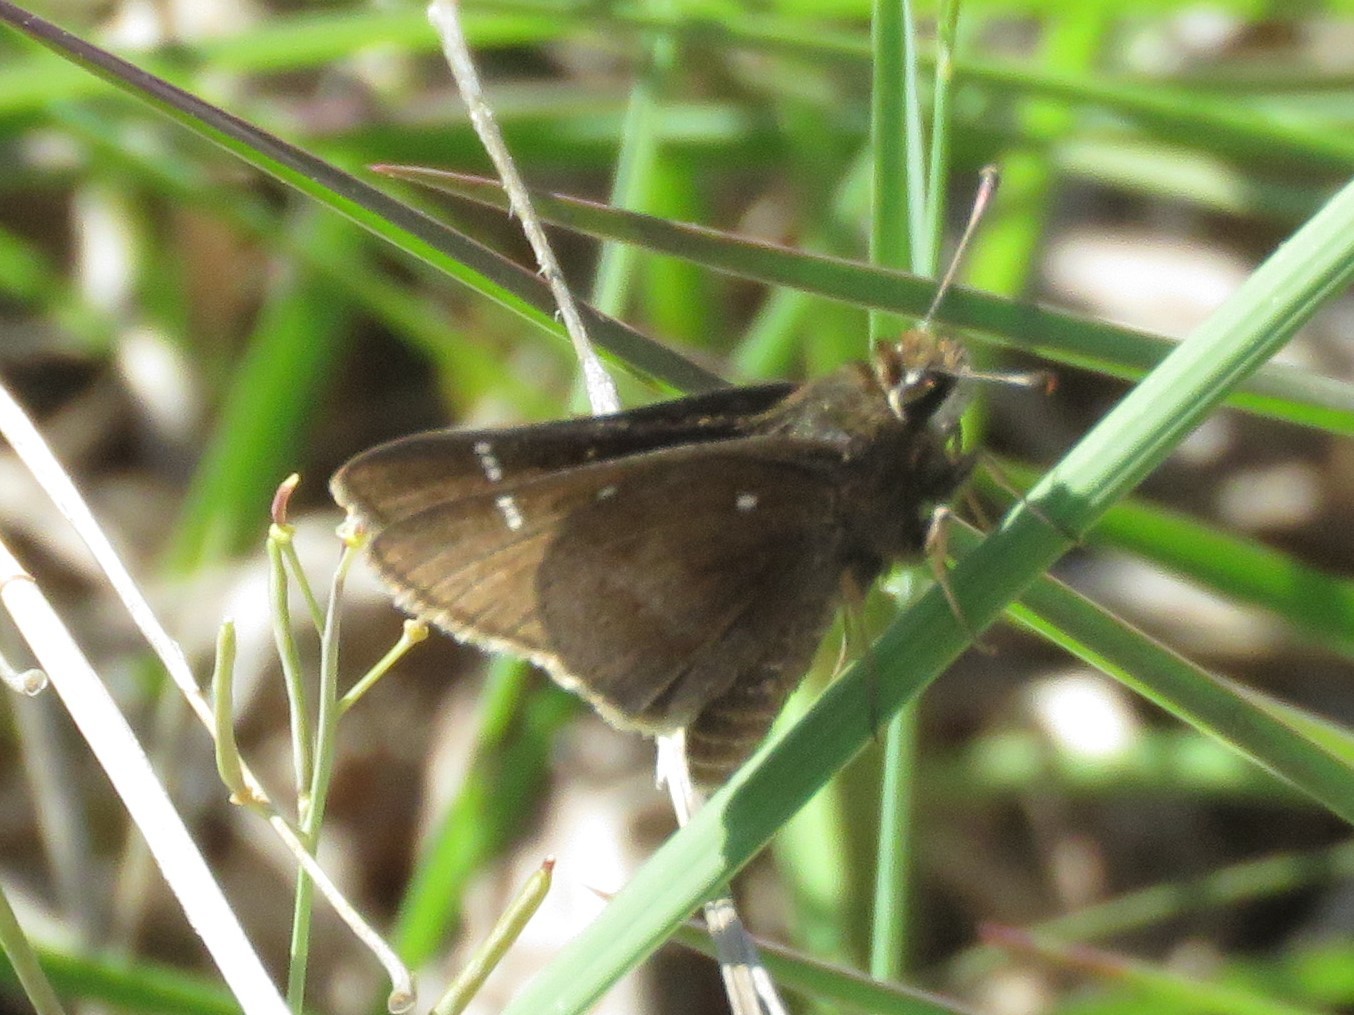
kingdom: Animalia
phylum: Arthropoda
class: Insecta
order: Lepidoptera
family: Hesperiidae
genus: Atrytonopsis
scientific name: Atrytonopsis hianna
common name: Dusted skipper
